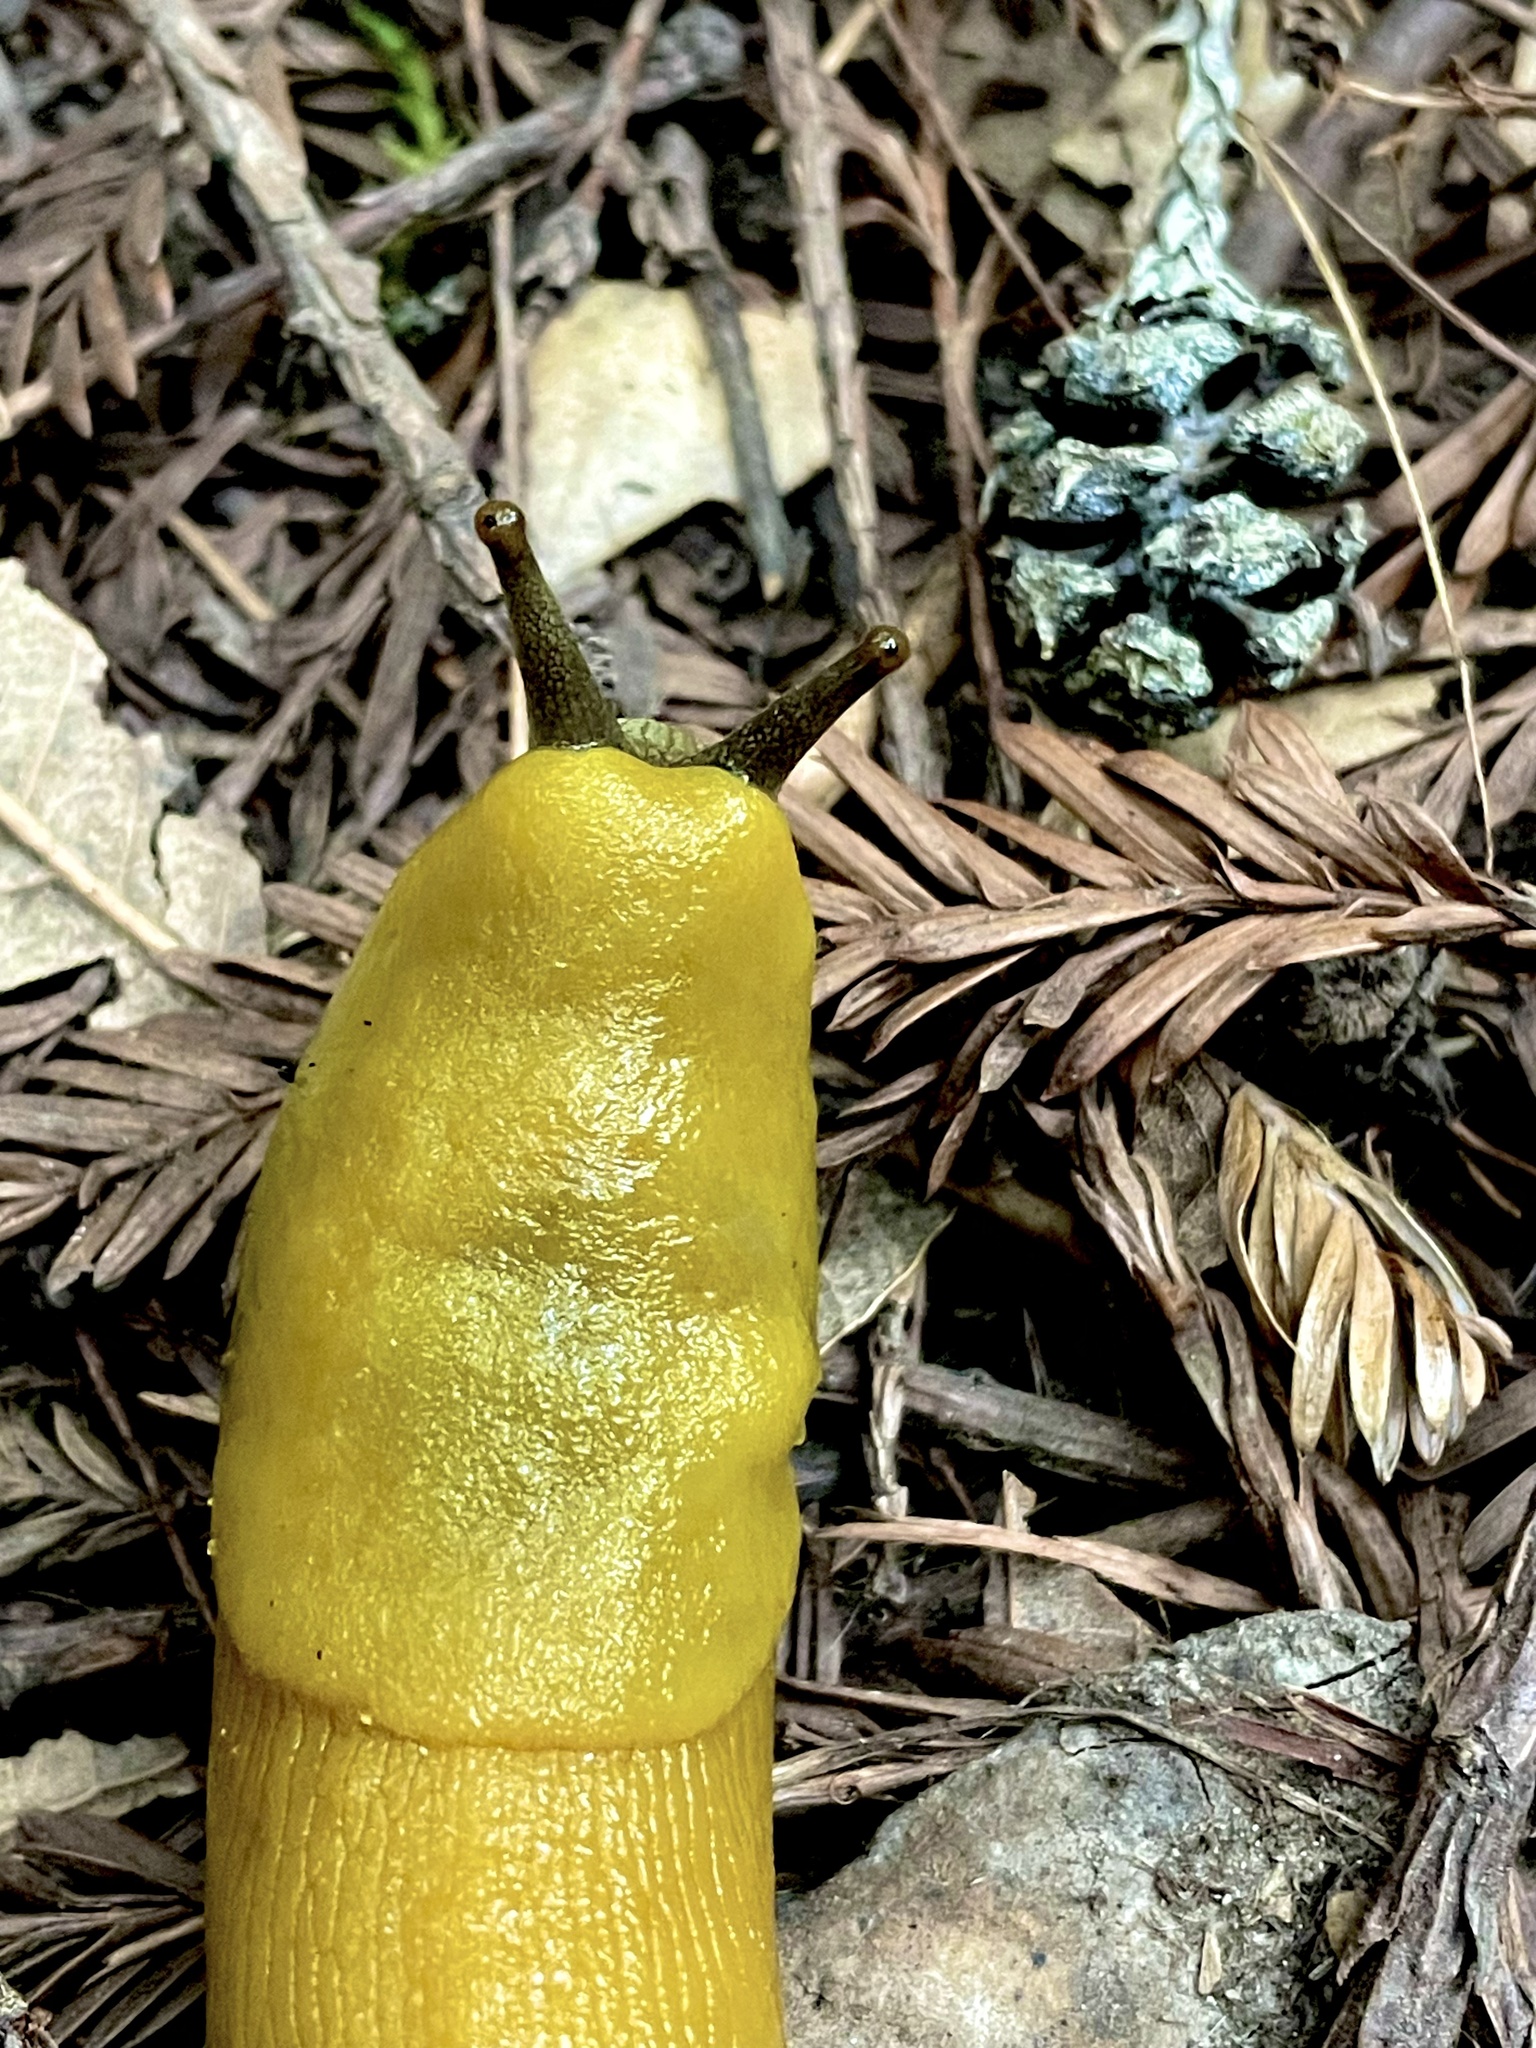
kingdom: Animalia
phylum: Mollusca
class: Gastropoda
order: Stylommatophora
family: Ariolimacidae
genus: Ariolimax
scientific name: Ariolimax dolichophallus
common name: Slender banana slug
